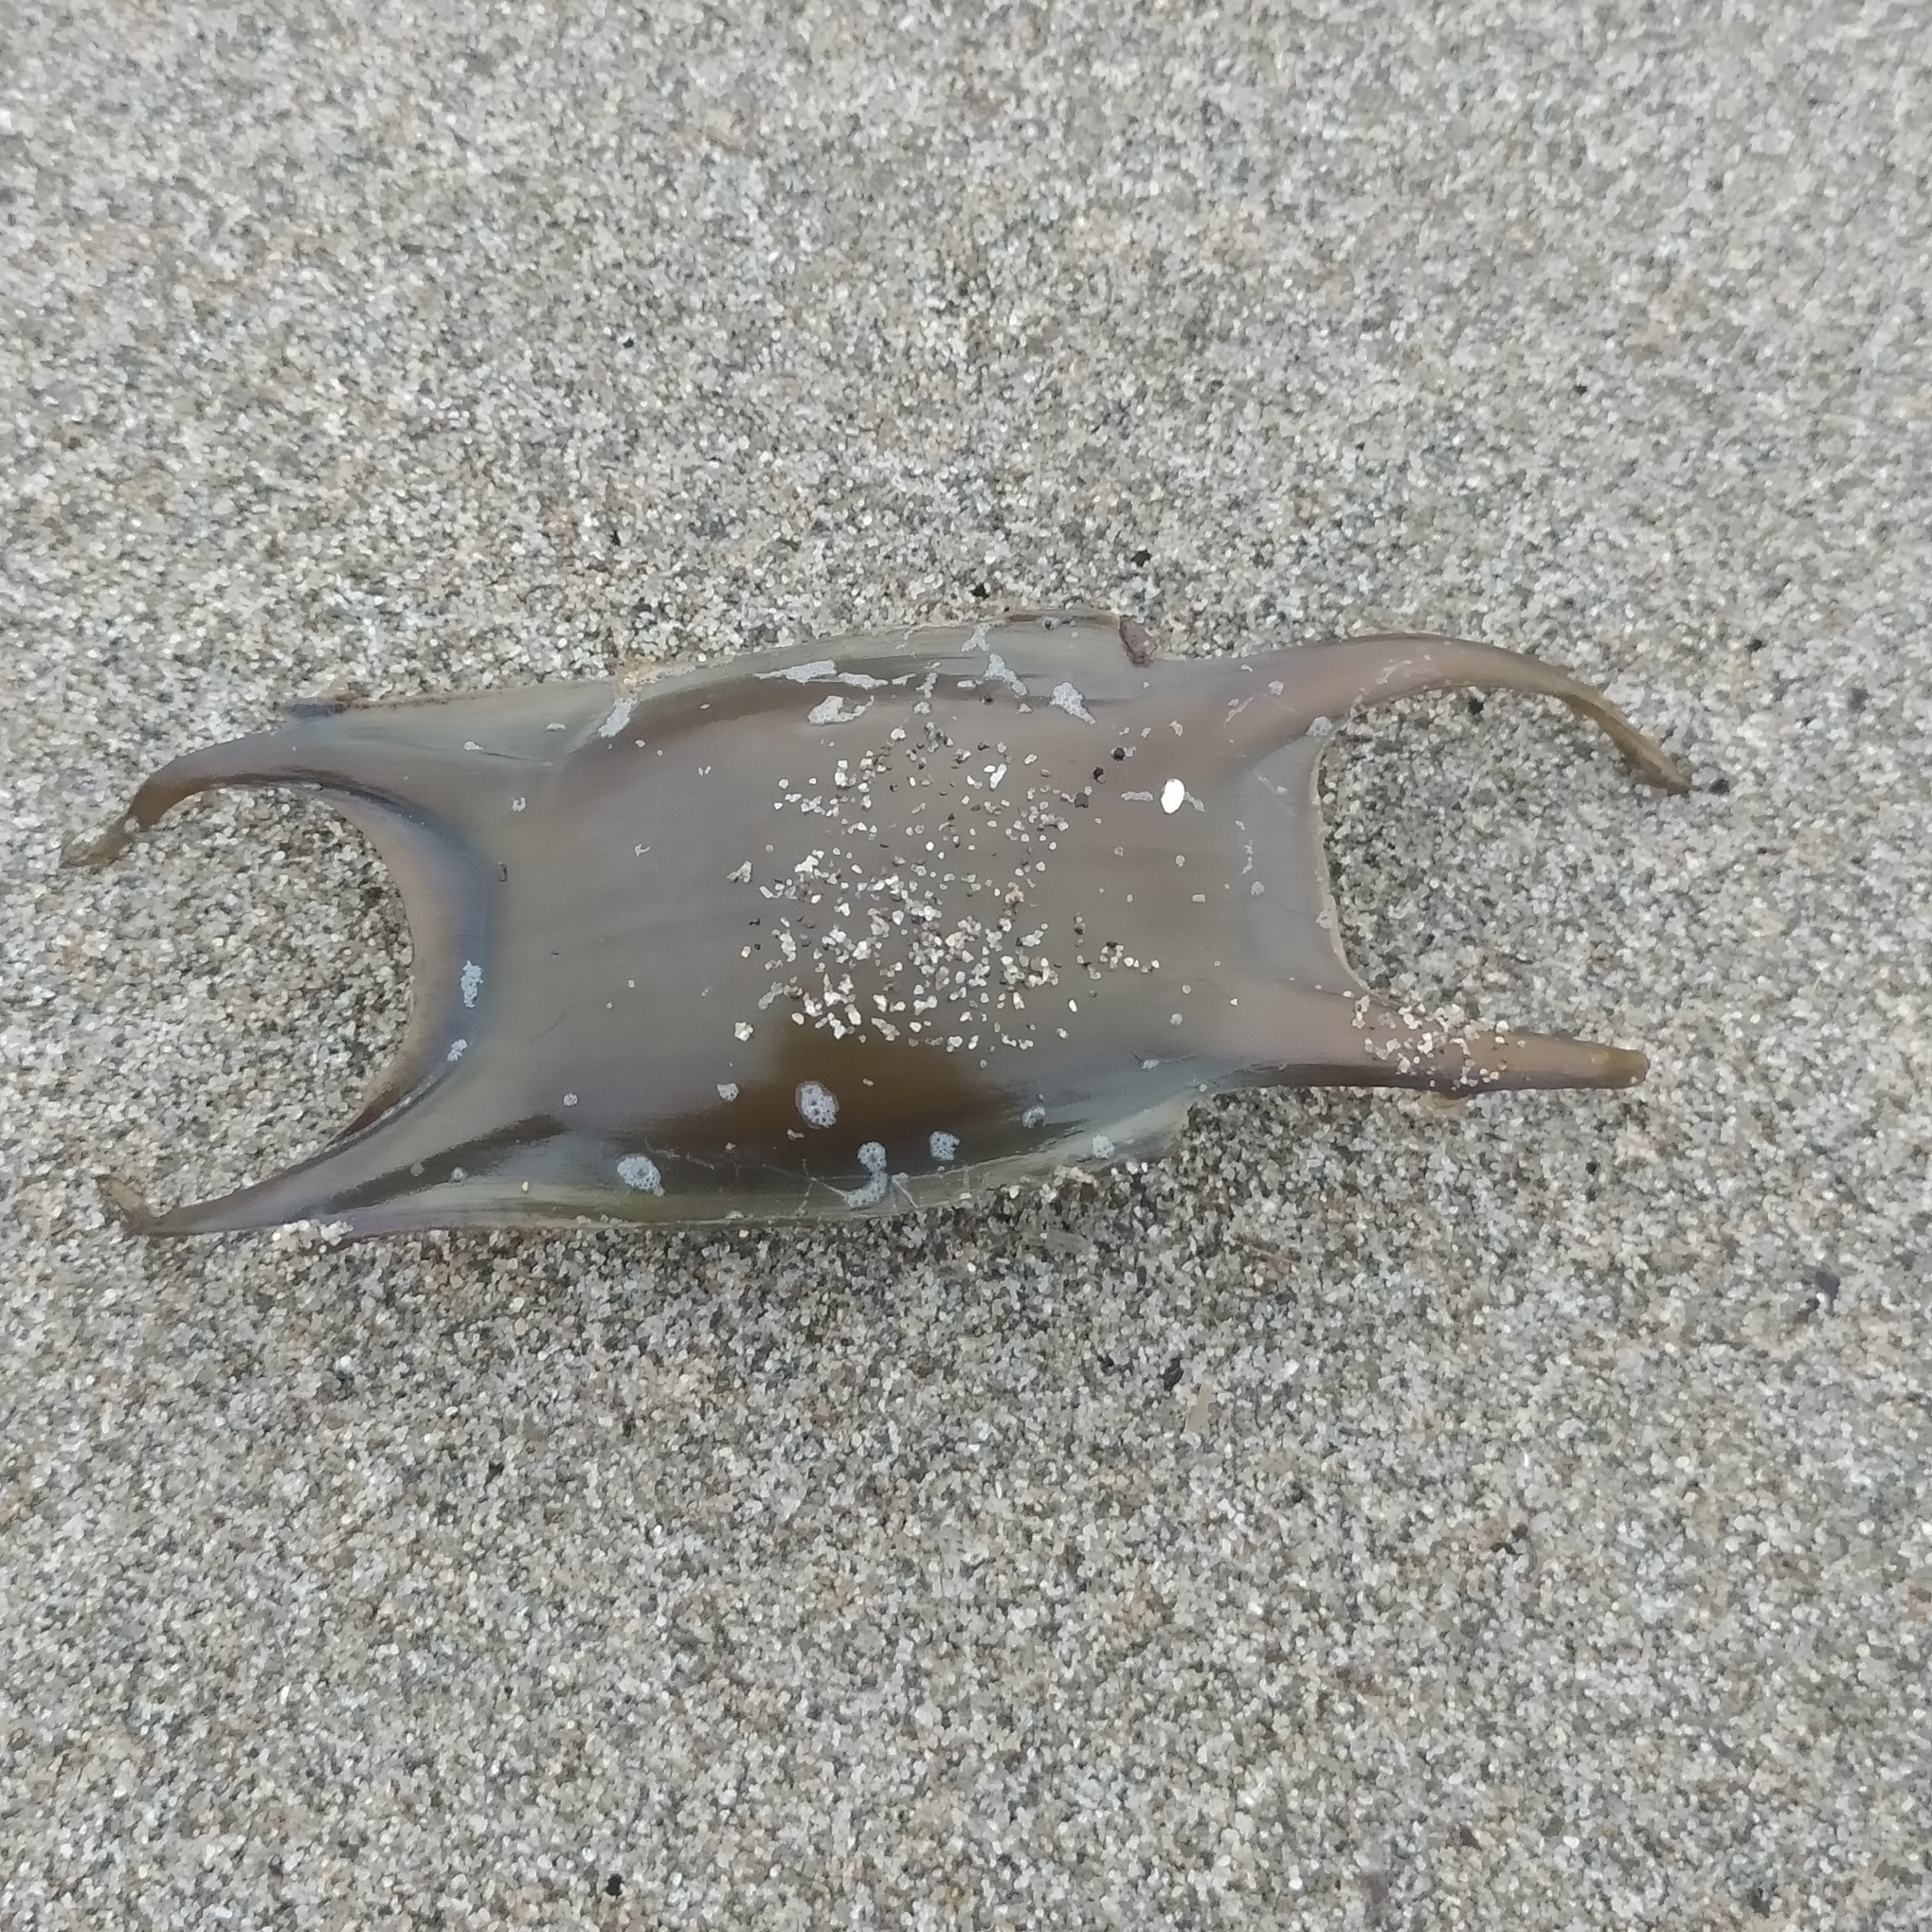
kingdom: Animalia
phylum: Chordata
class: Elasmobranchii
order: Rajiformes
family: Rajidae
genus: Raja
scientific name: Raja asterias
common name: Starry ray
